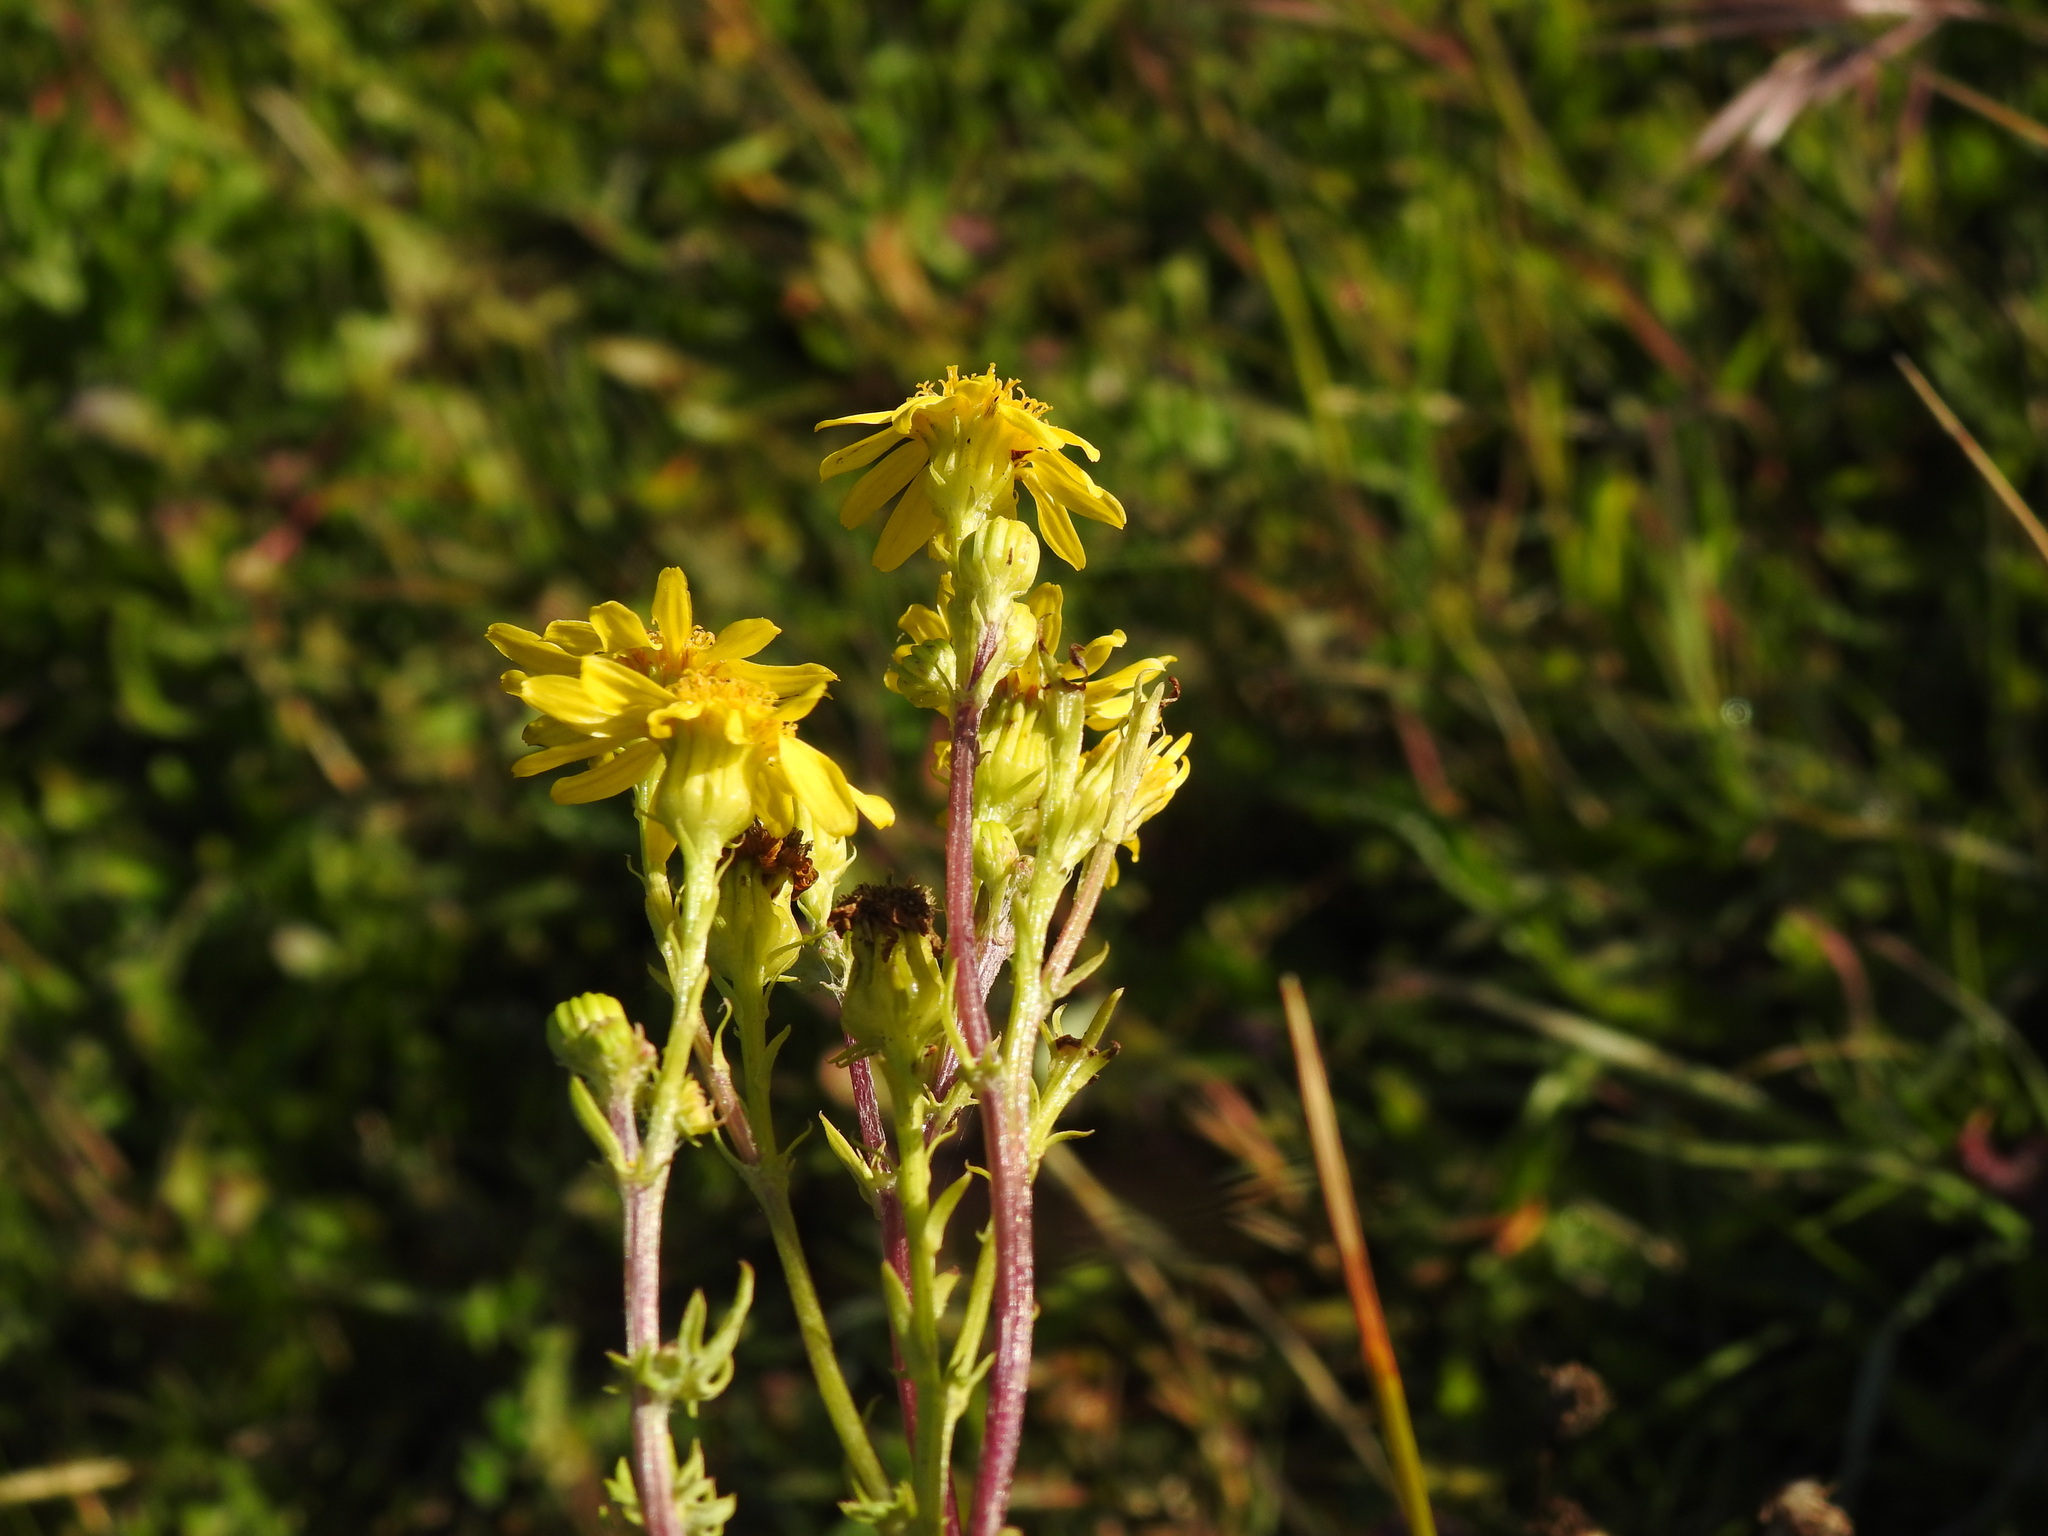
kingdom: Plantae
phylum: Tracheophyta
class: Magnoliopsida
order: Asterales
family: Asteraceae
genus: Jacobaea
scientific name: Jacobaea vulgaris
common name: Stinking willie
